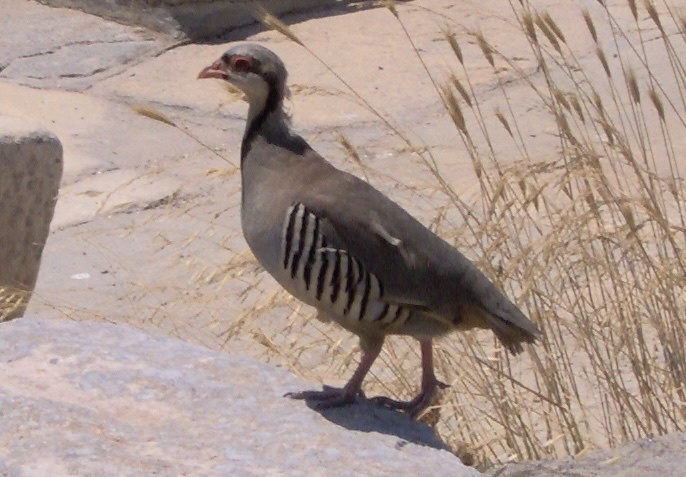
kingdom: Animalia
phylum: Chordata
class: Aves
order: Galliformes
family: Phasianidae
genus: Alectoris
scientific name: Alectoris chukar
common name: Chukar
